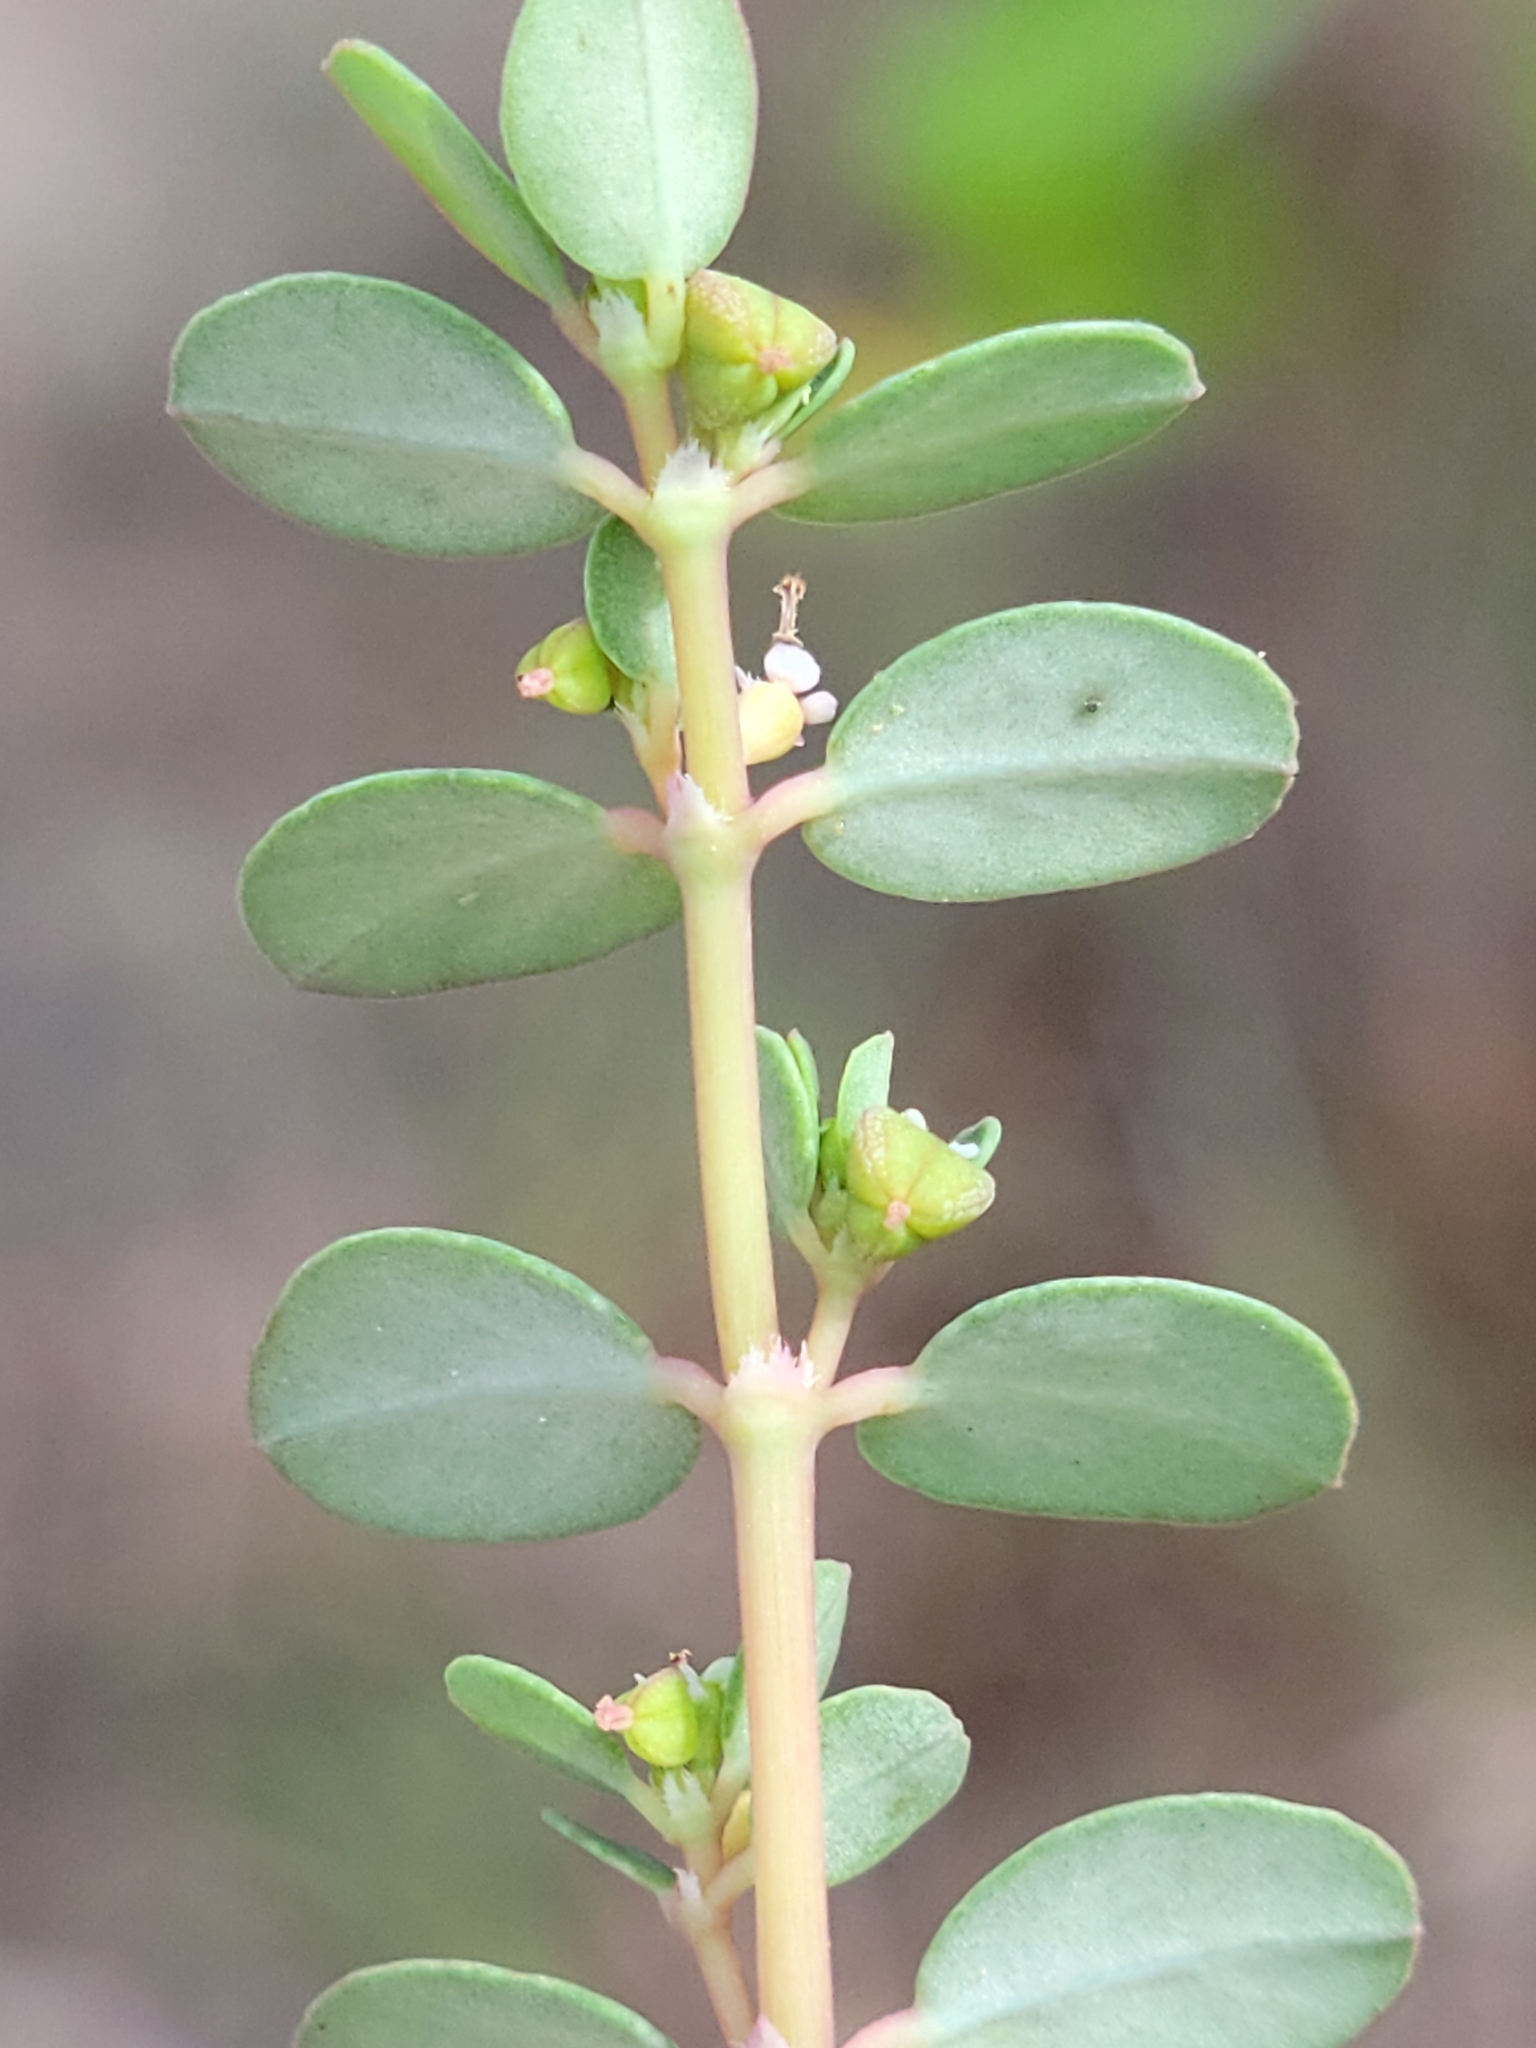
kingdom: Plantae
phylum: Tracheophyta
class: Magnoliopsida
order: Malpighiales
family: Euphorbiaceae
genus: Euphorbia
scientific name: Euphorbia blodgettii
